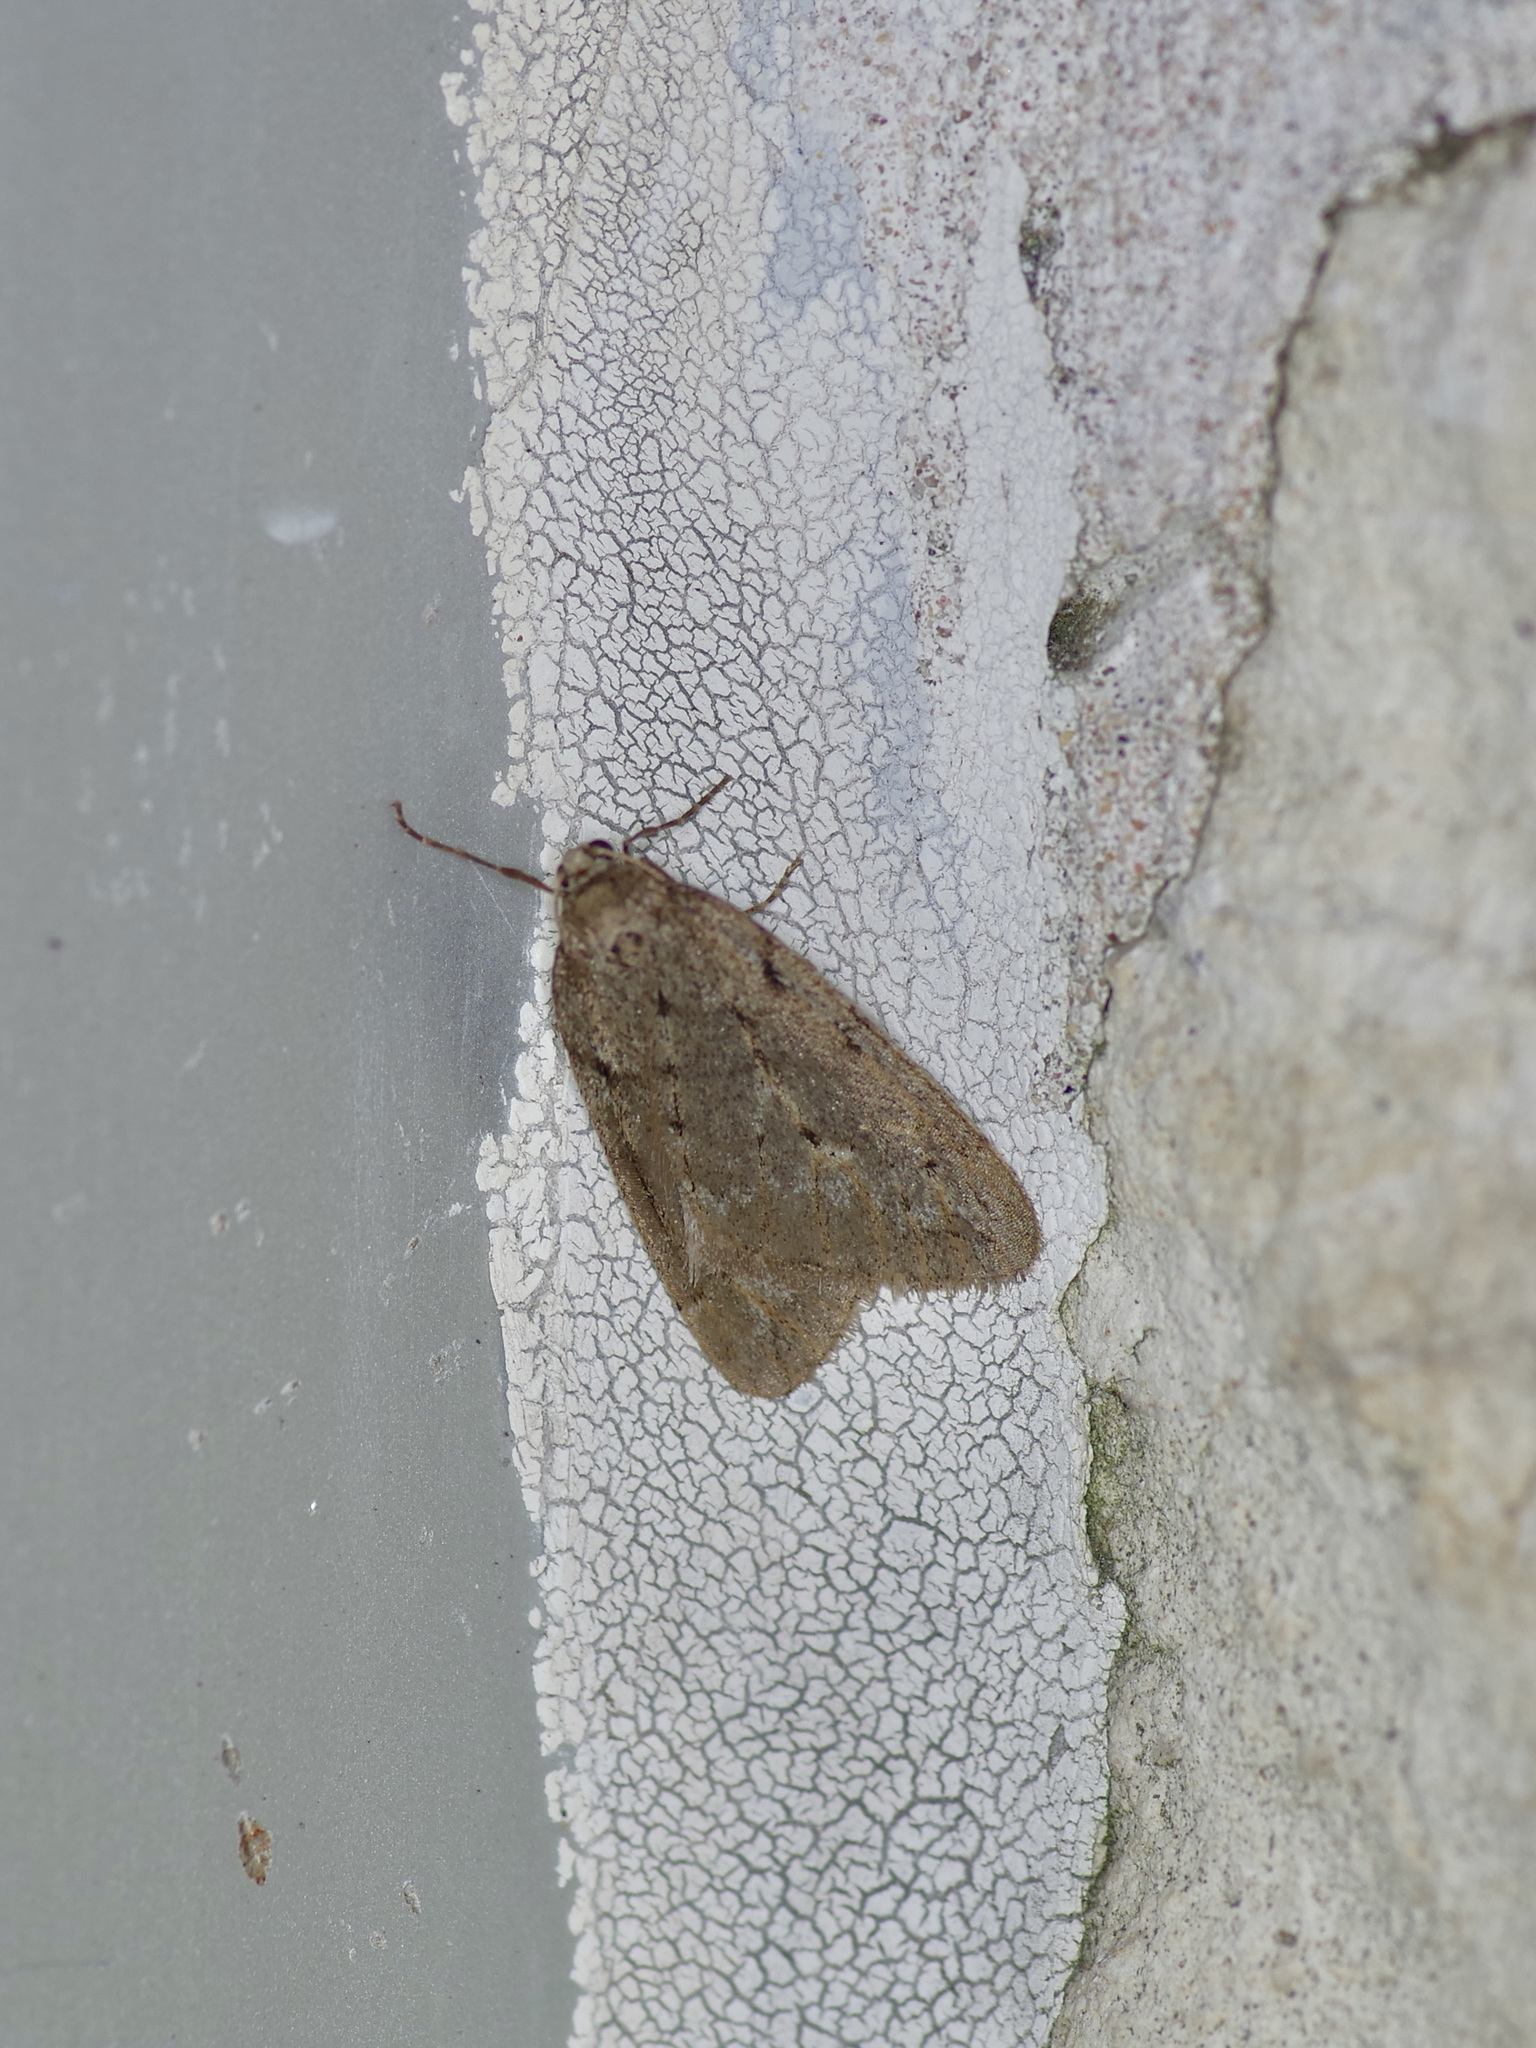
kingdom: Animalia
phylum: Arthropoda
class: Insecta
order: Lepidoptera
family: Geometridae
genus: Paleacrita
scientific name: Paleacrita vernata
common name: Spring cankerworm
